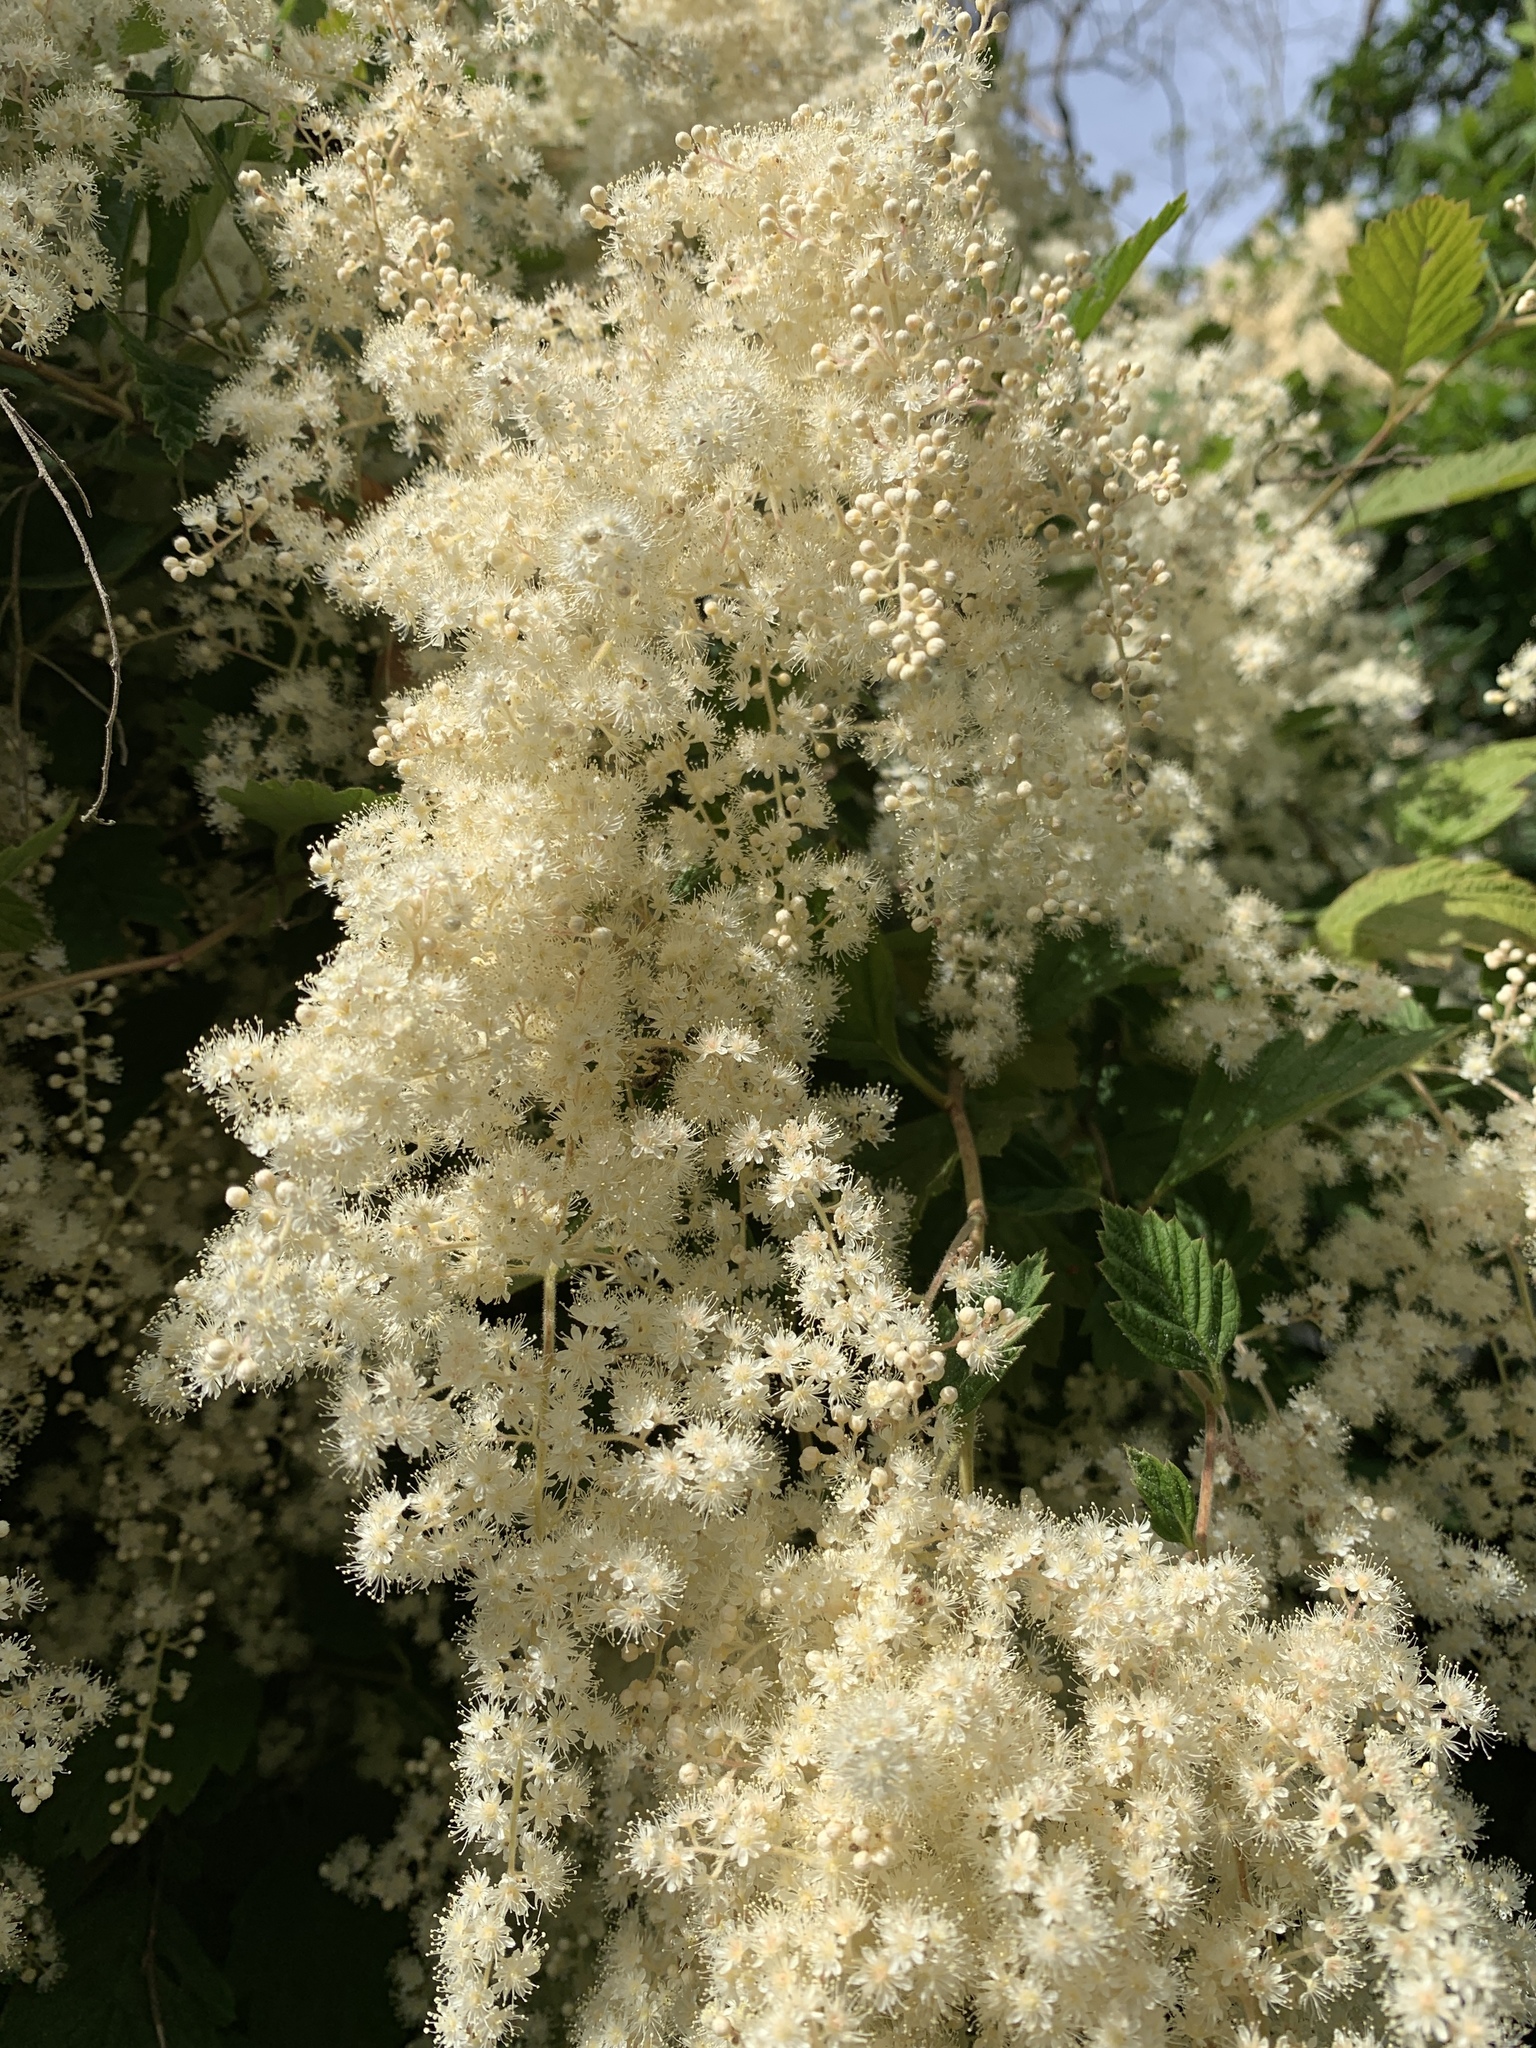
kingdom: Plantae
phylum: Tracheophyta
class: Magnoliopsida
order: Rosales
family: Rosaceae
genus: Holodiscus
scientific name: Holodiscus discolor
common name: Oceanspray
